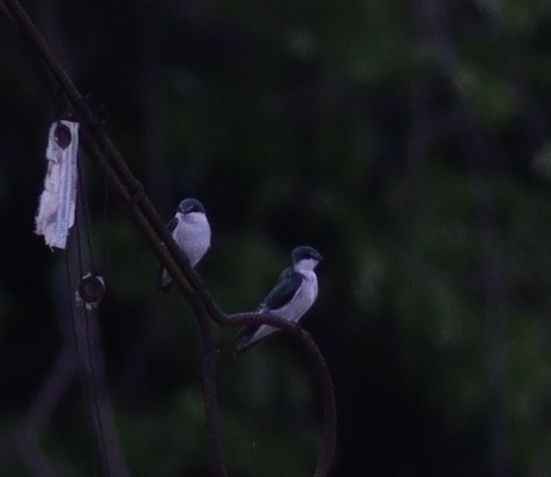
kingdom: Animalia
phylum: Chordata
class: Aves
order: Passeriformes
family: Hirundinidae
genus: Tachycineta
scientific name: Tachycineta albilinea
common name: Mangrove swallow
